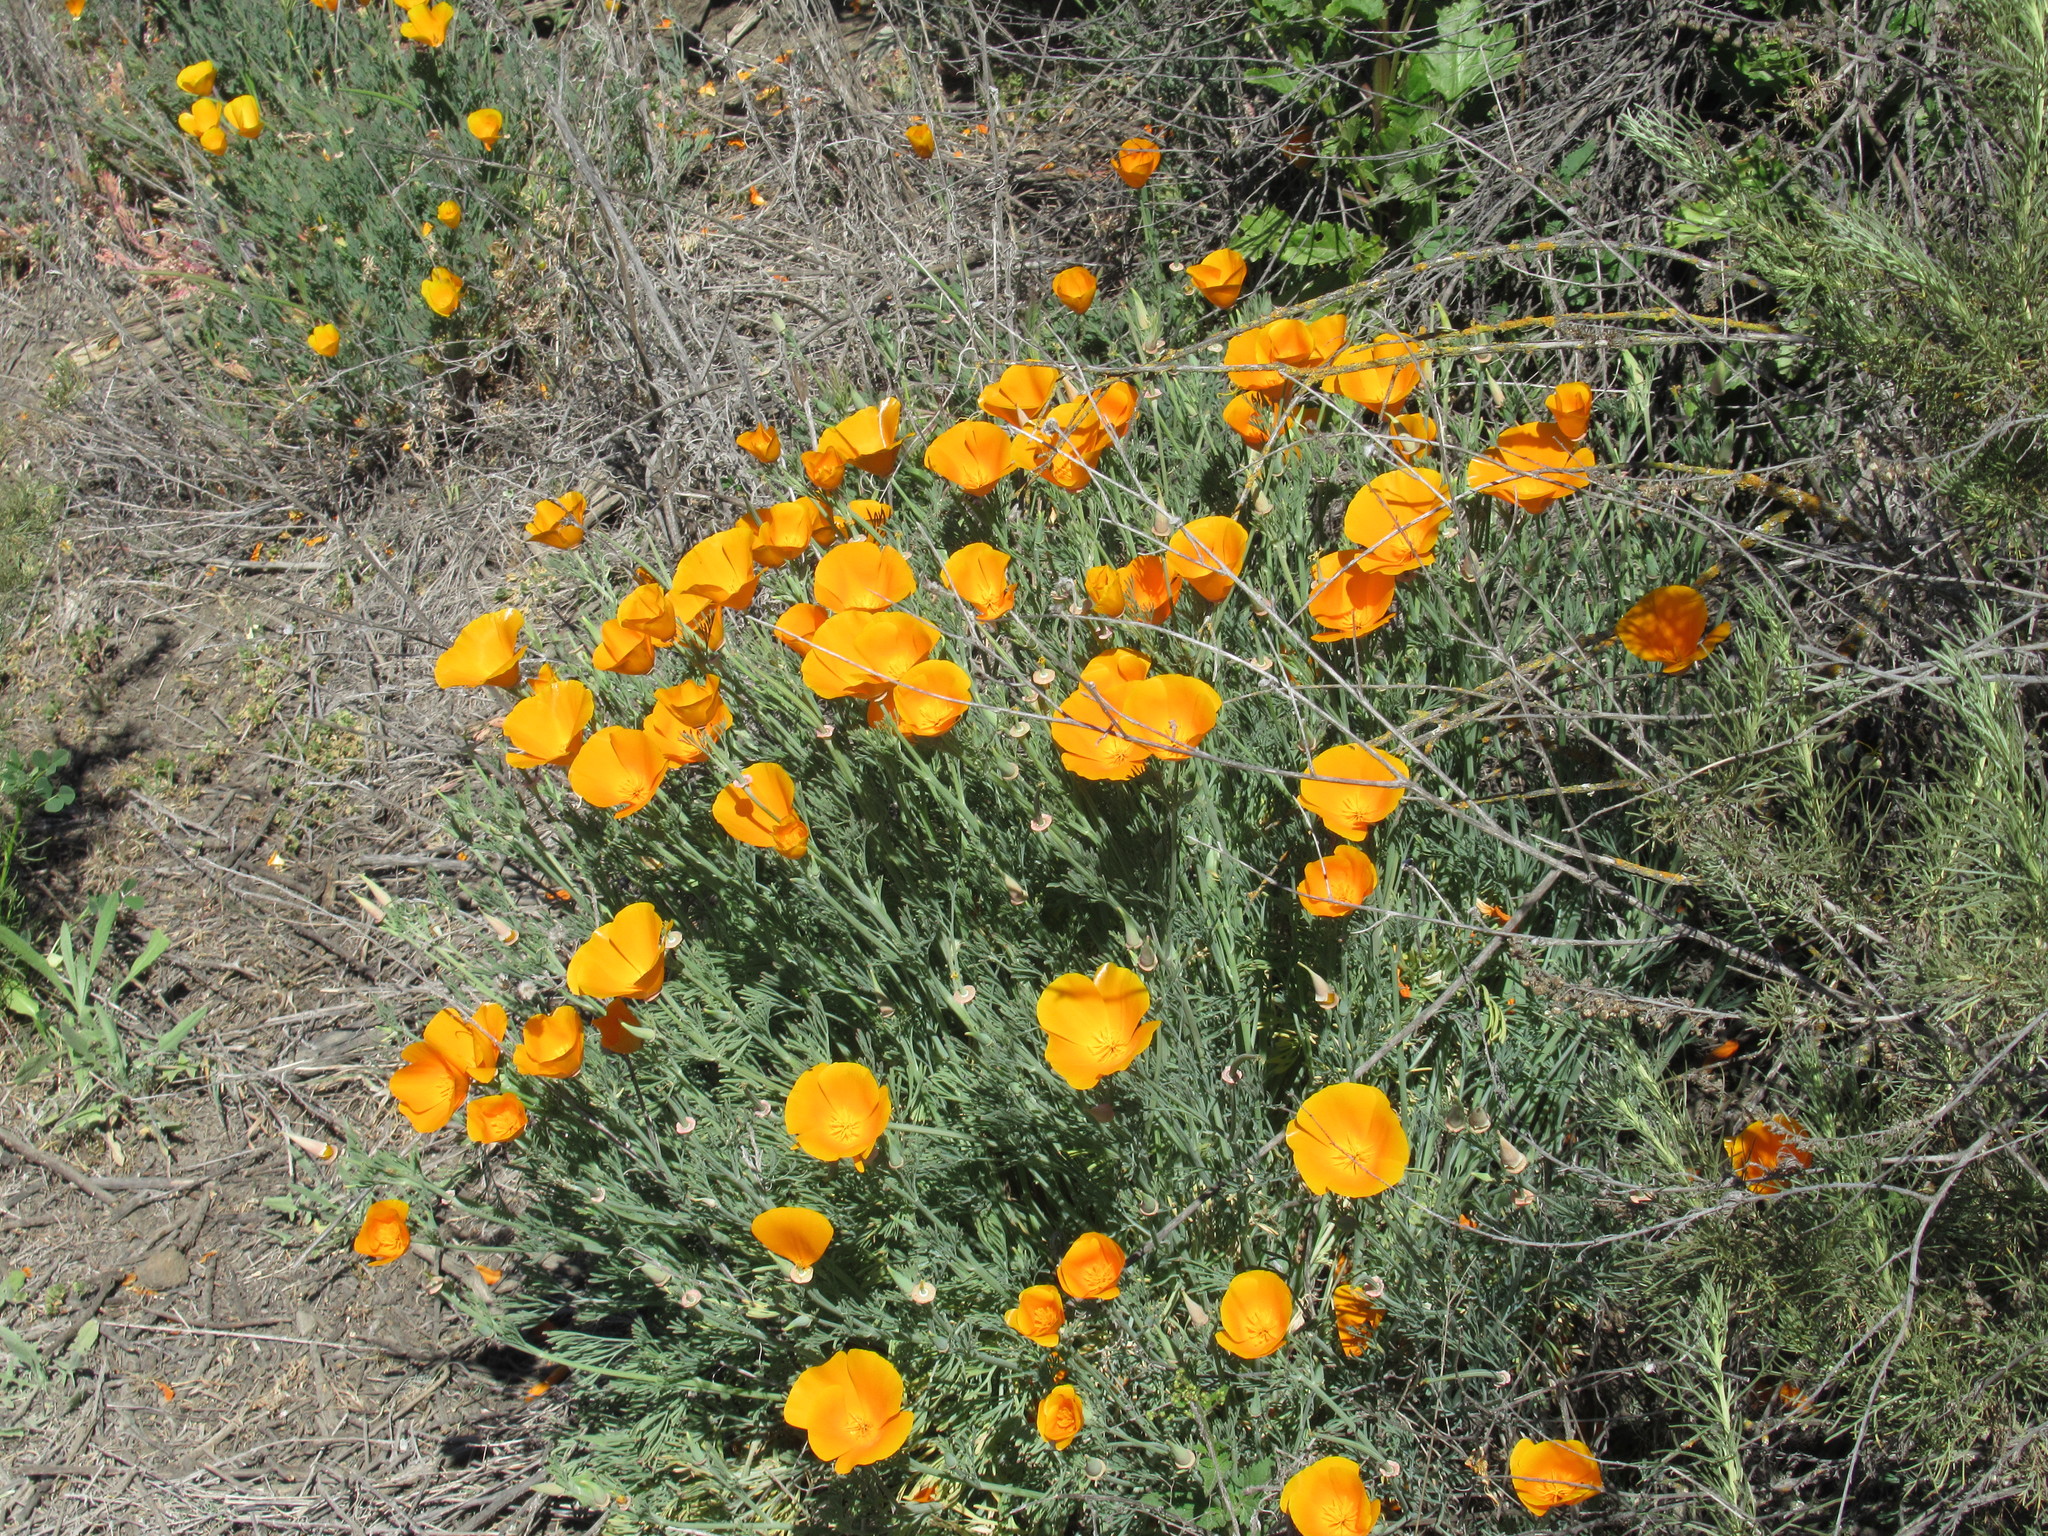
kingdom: Plantae
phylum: Tracheophyta
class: Magnoliopsida
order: Ranunculales
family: Papaveraceae
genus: Eschscholzia
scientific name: Eschscholzia californica
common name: California poppy
